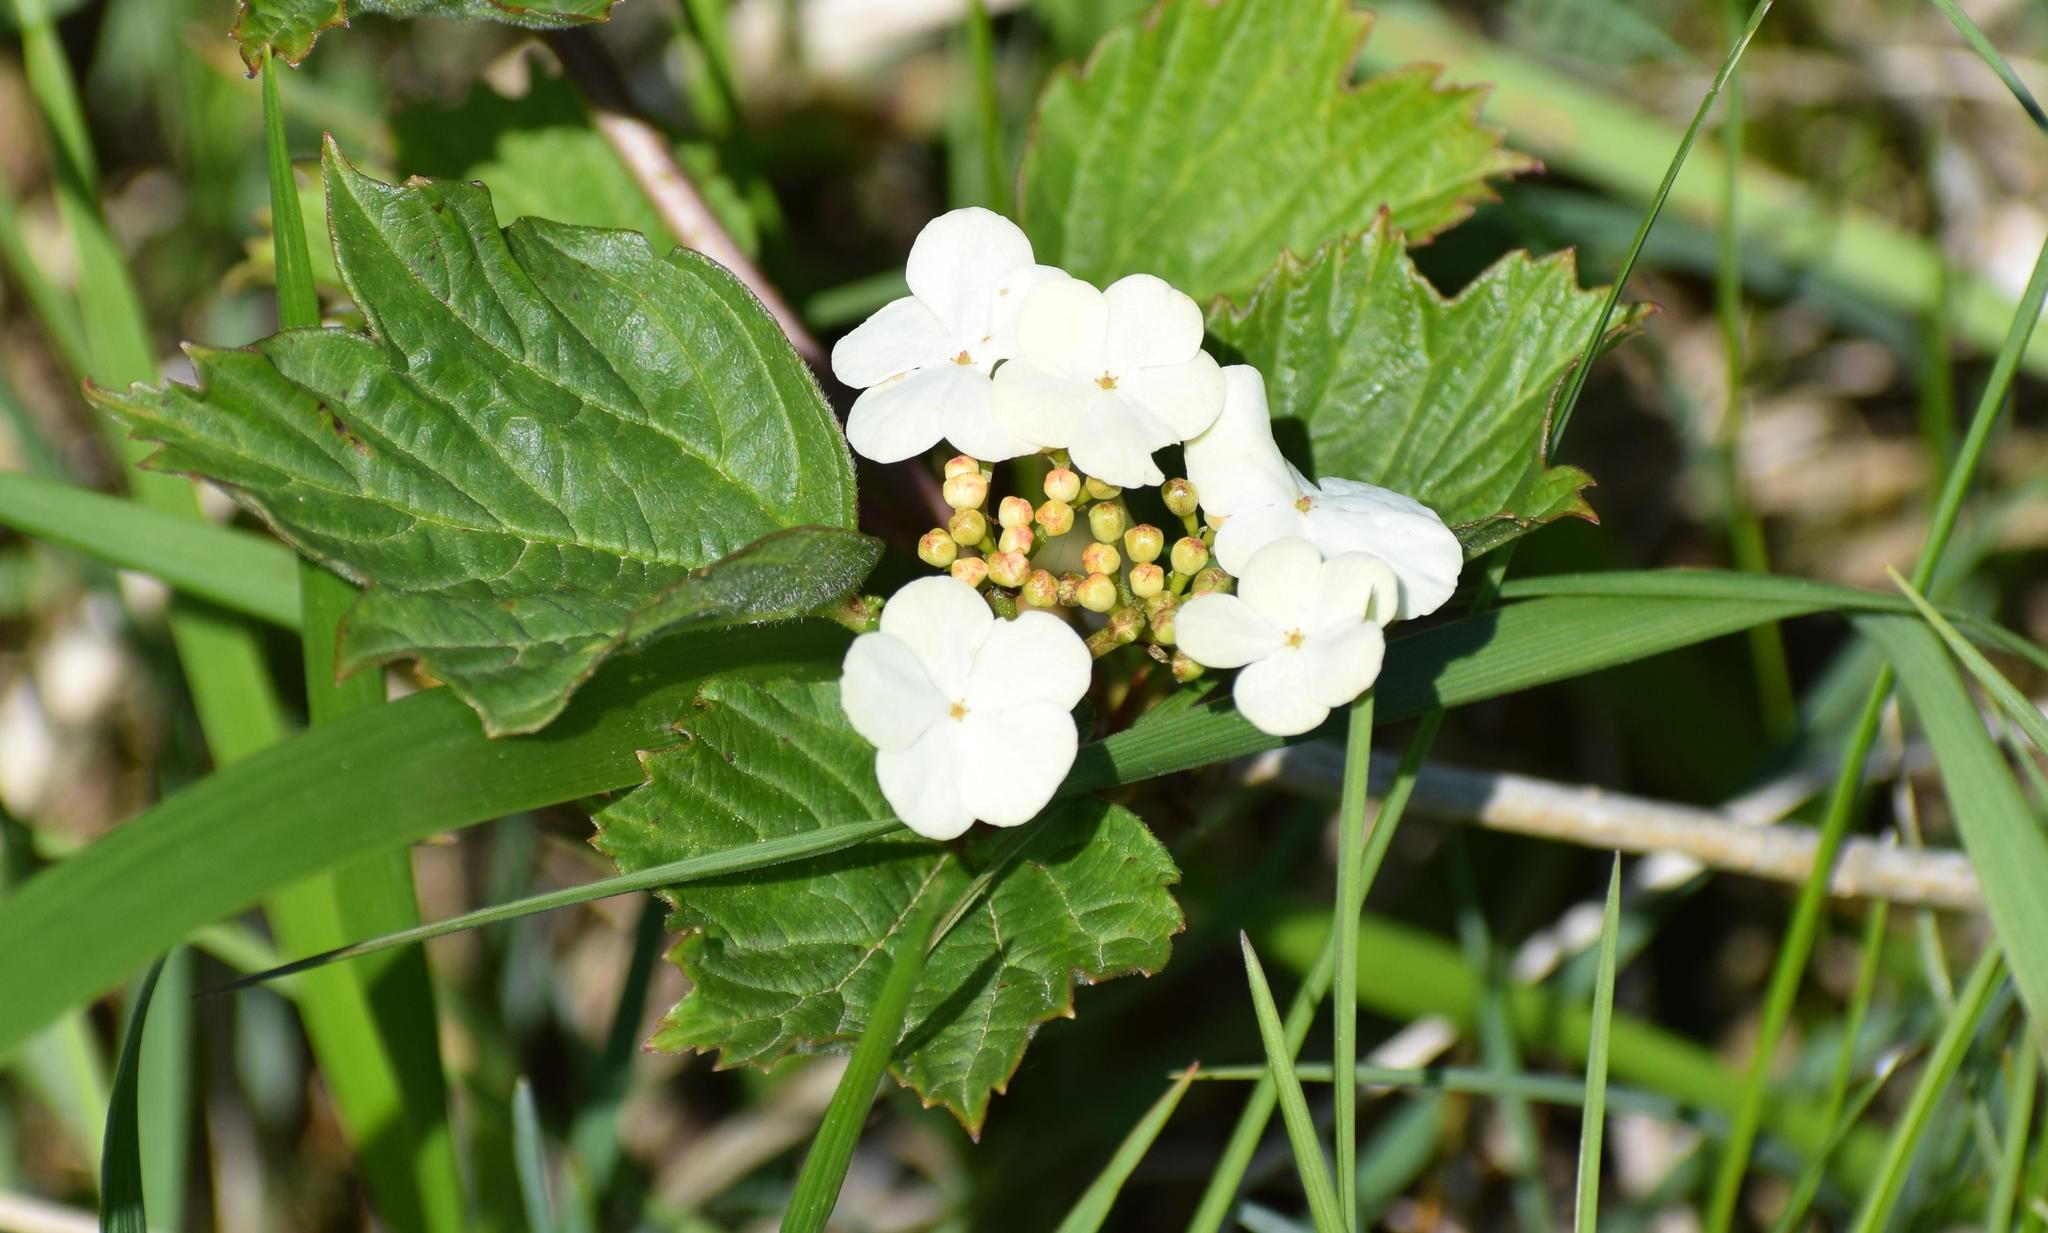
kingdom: Plantae
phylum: Tracheophyta
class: Magnoliopsida
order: Dipsacales
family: Viburnaceae
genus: Viburnum
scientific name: Viburnum opulus
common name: Guelder-rose
